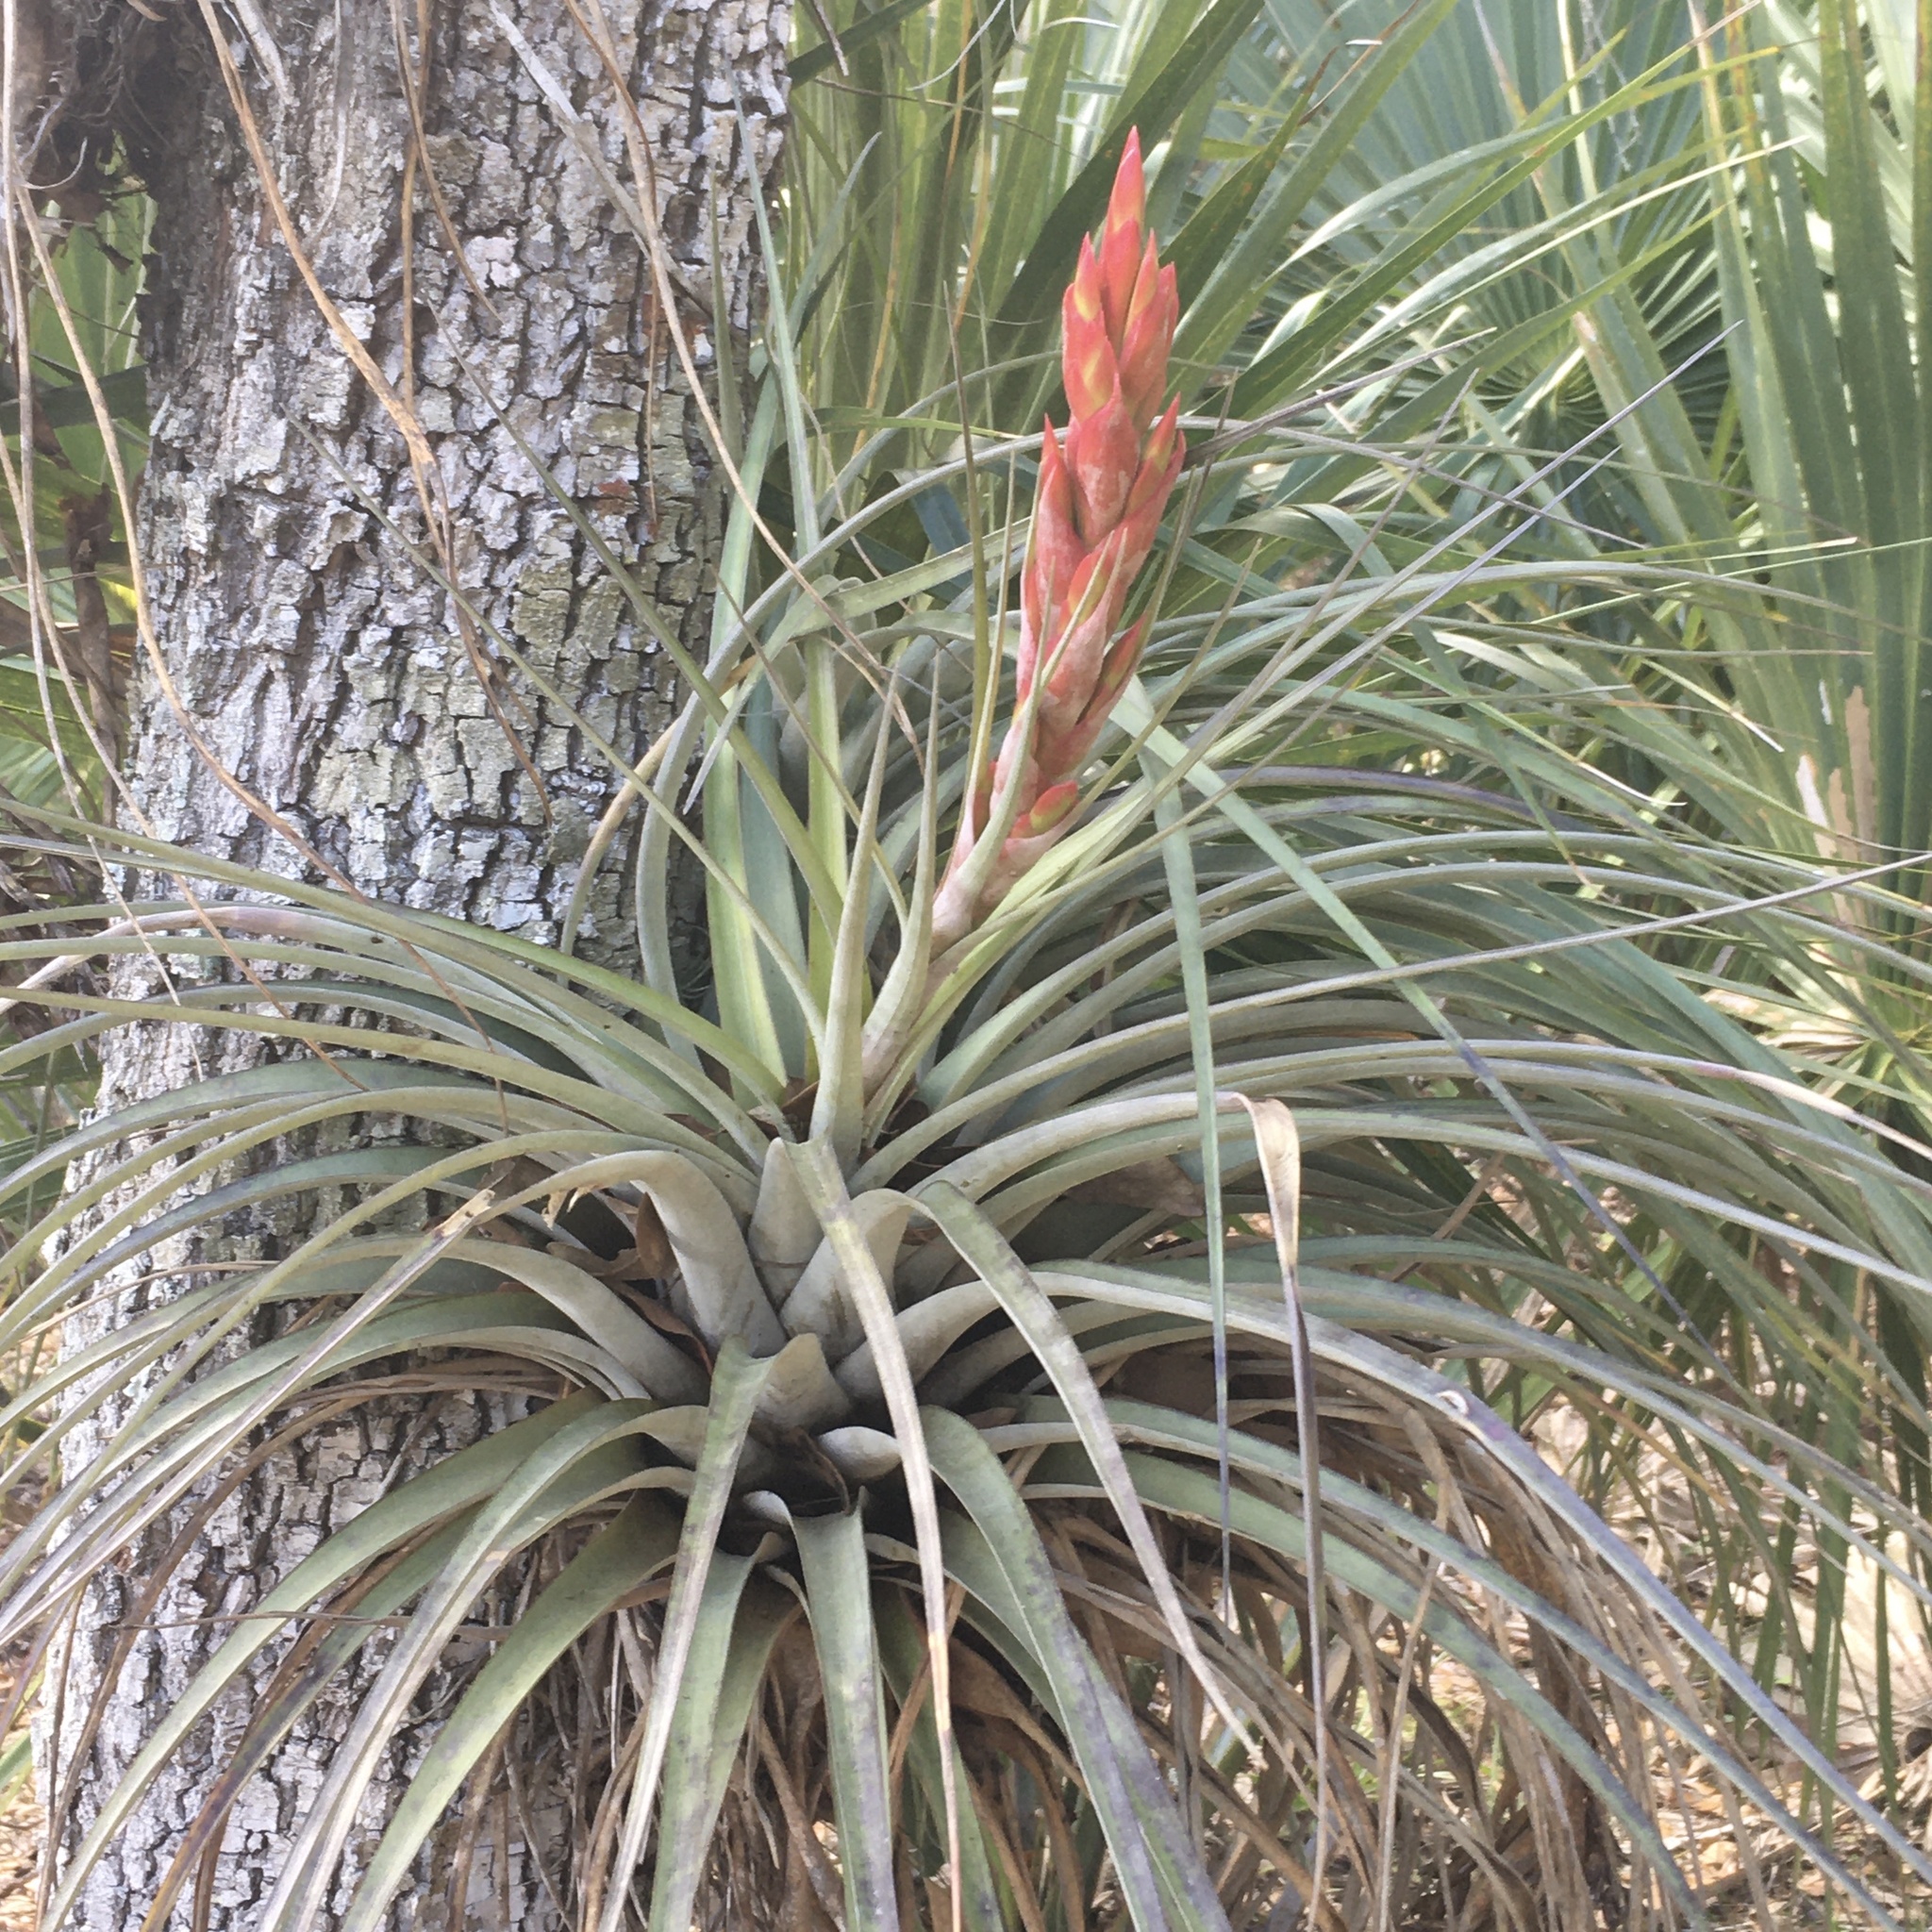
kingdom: Plantae
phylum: Tracheophyta
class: Liliopsida
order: Poales
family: Bromeliaceae
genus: Tillandsia
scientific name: Tillandsia fasciculata
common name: Giant airplant
